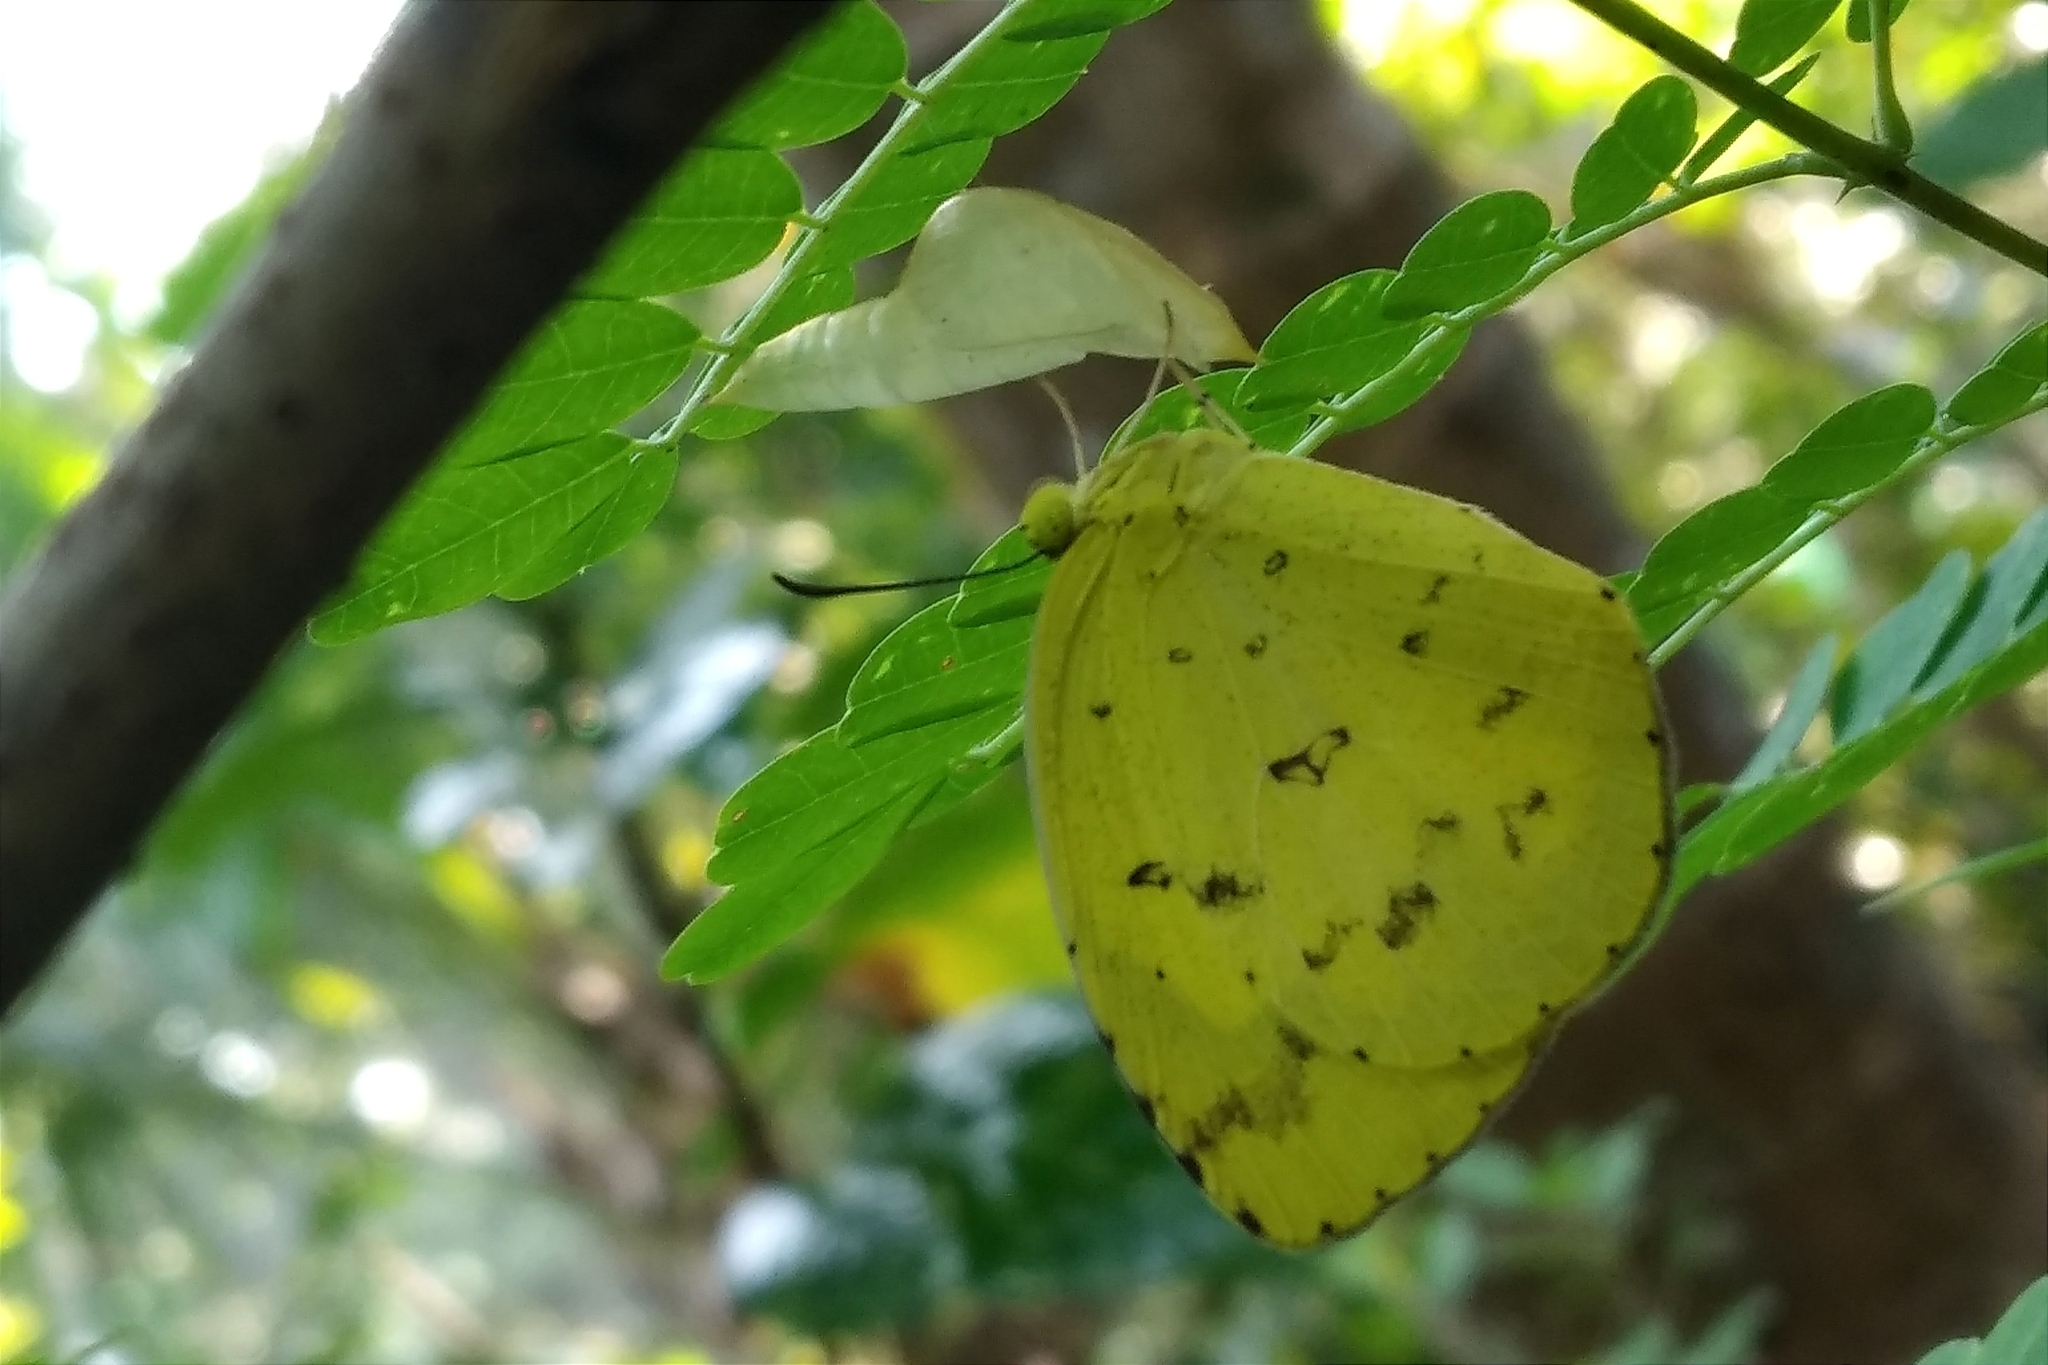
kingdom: Animalia
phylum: Arthropoda
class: Insecta
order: Lepidoptera
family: Pieridae
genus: Eurema
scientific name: Eurema hecabe
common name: Pale grass yellow
